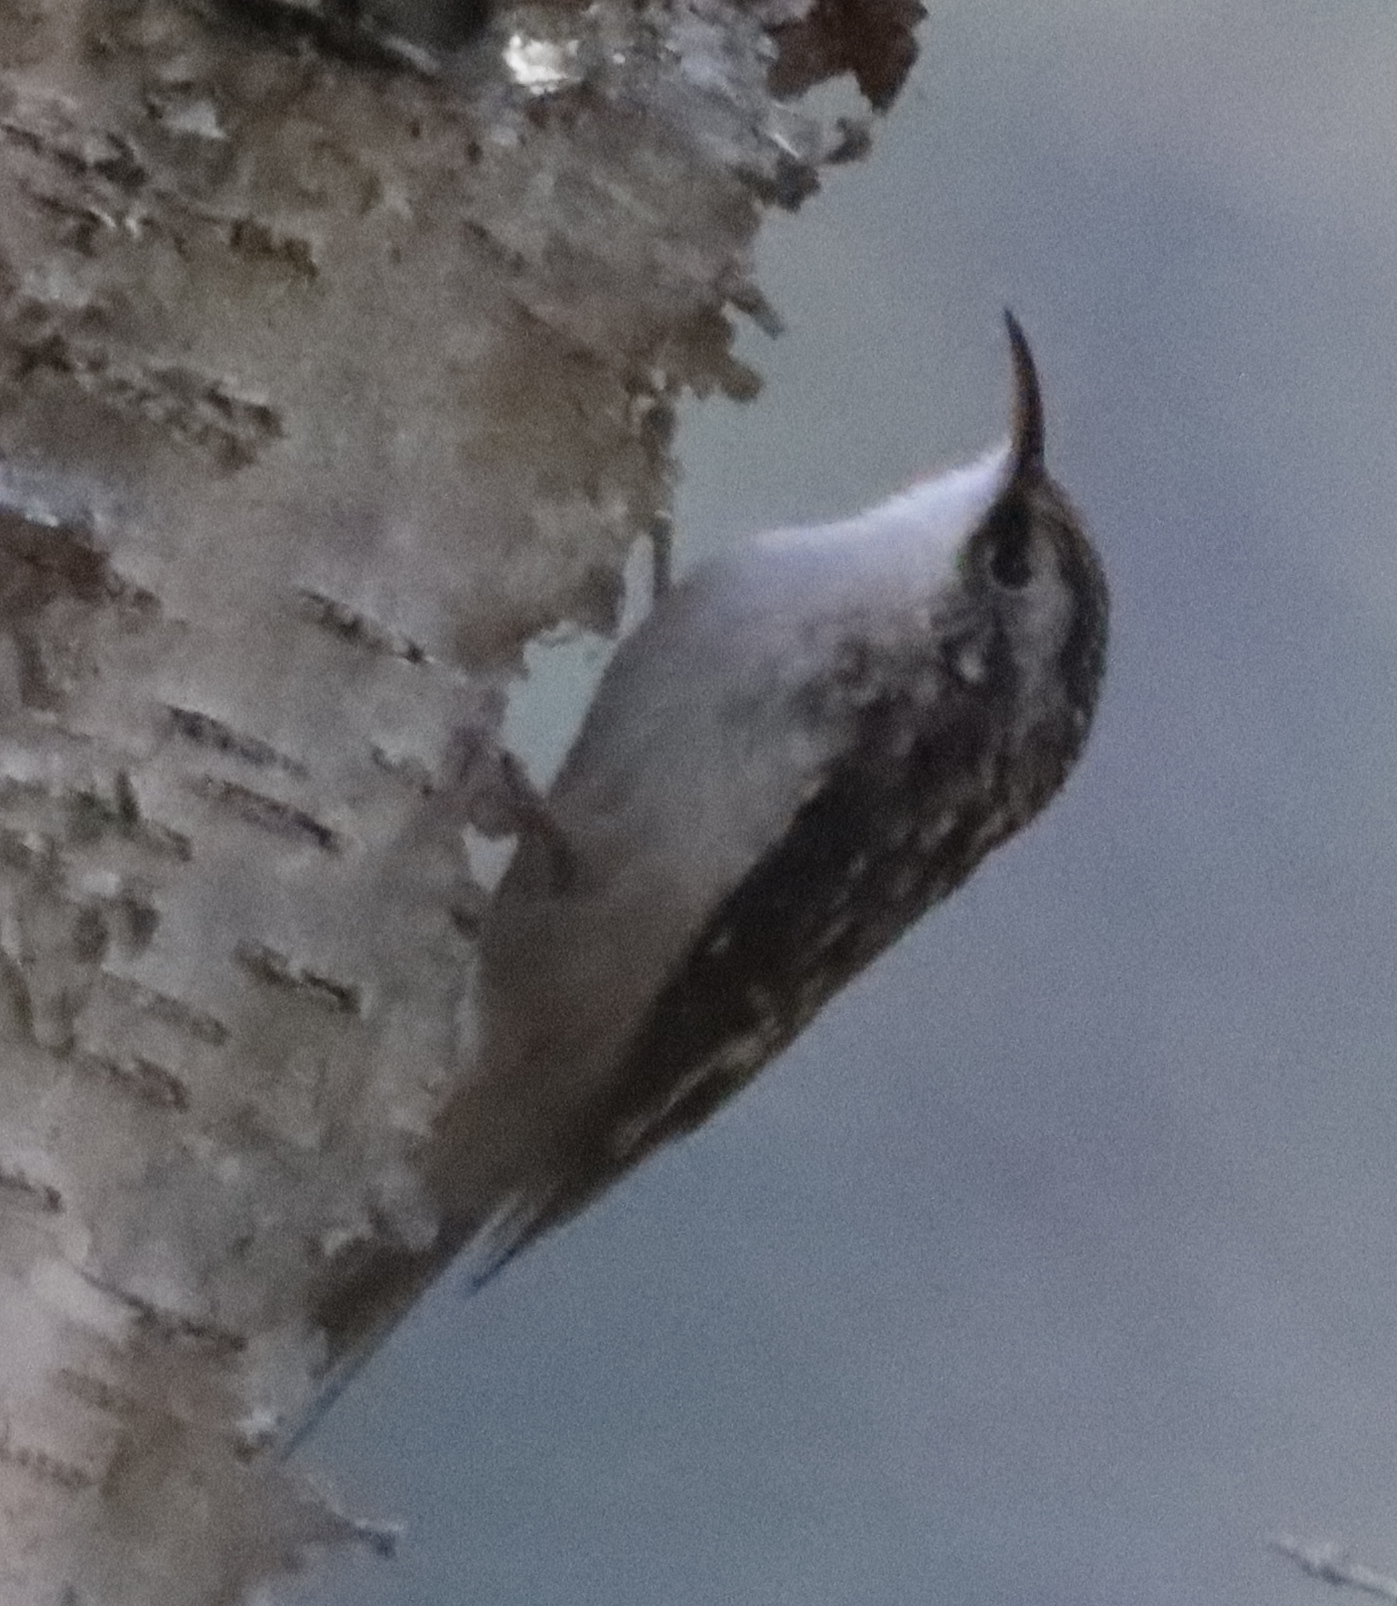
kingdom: Animalia
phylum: Chordata
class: Aves
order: Passeriformes
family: Certhiidae
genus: Certhia
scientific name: Certhia americana
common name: Brown creeper
